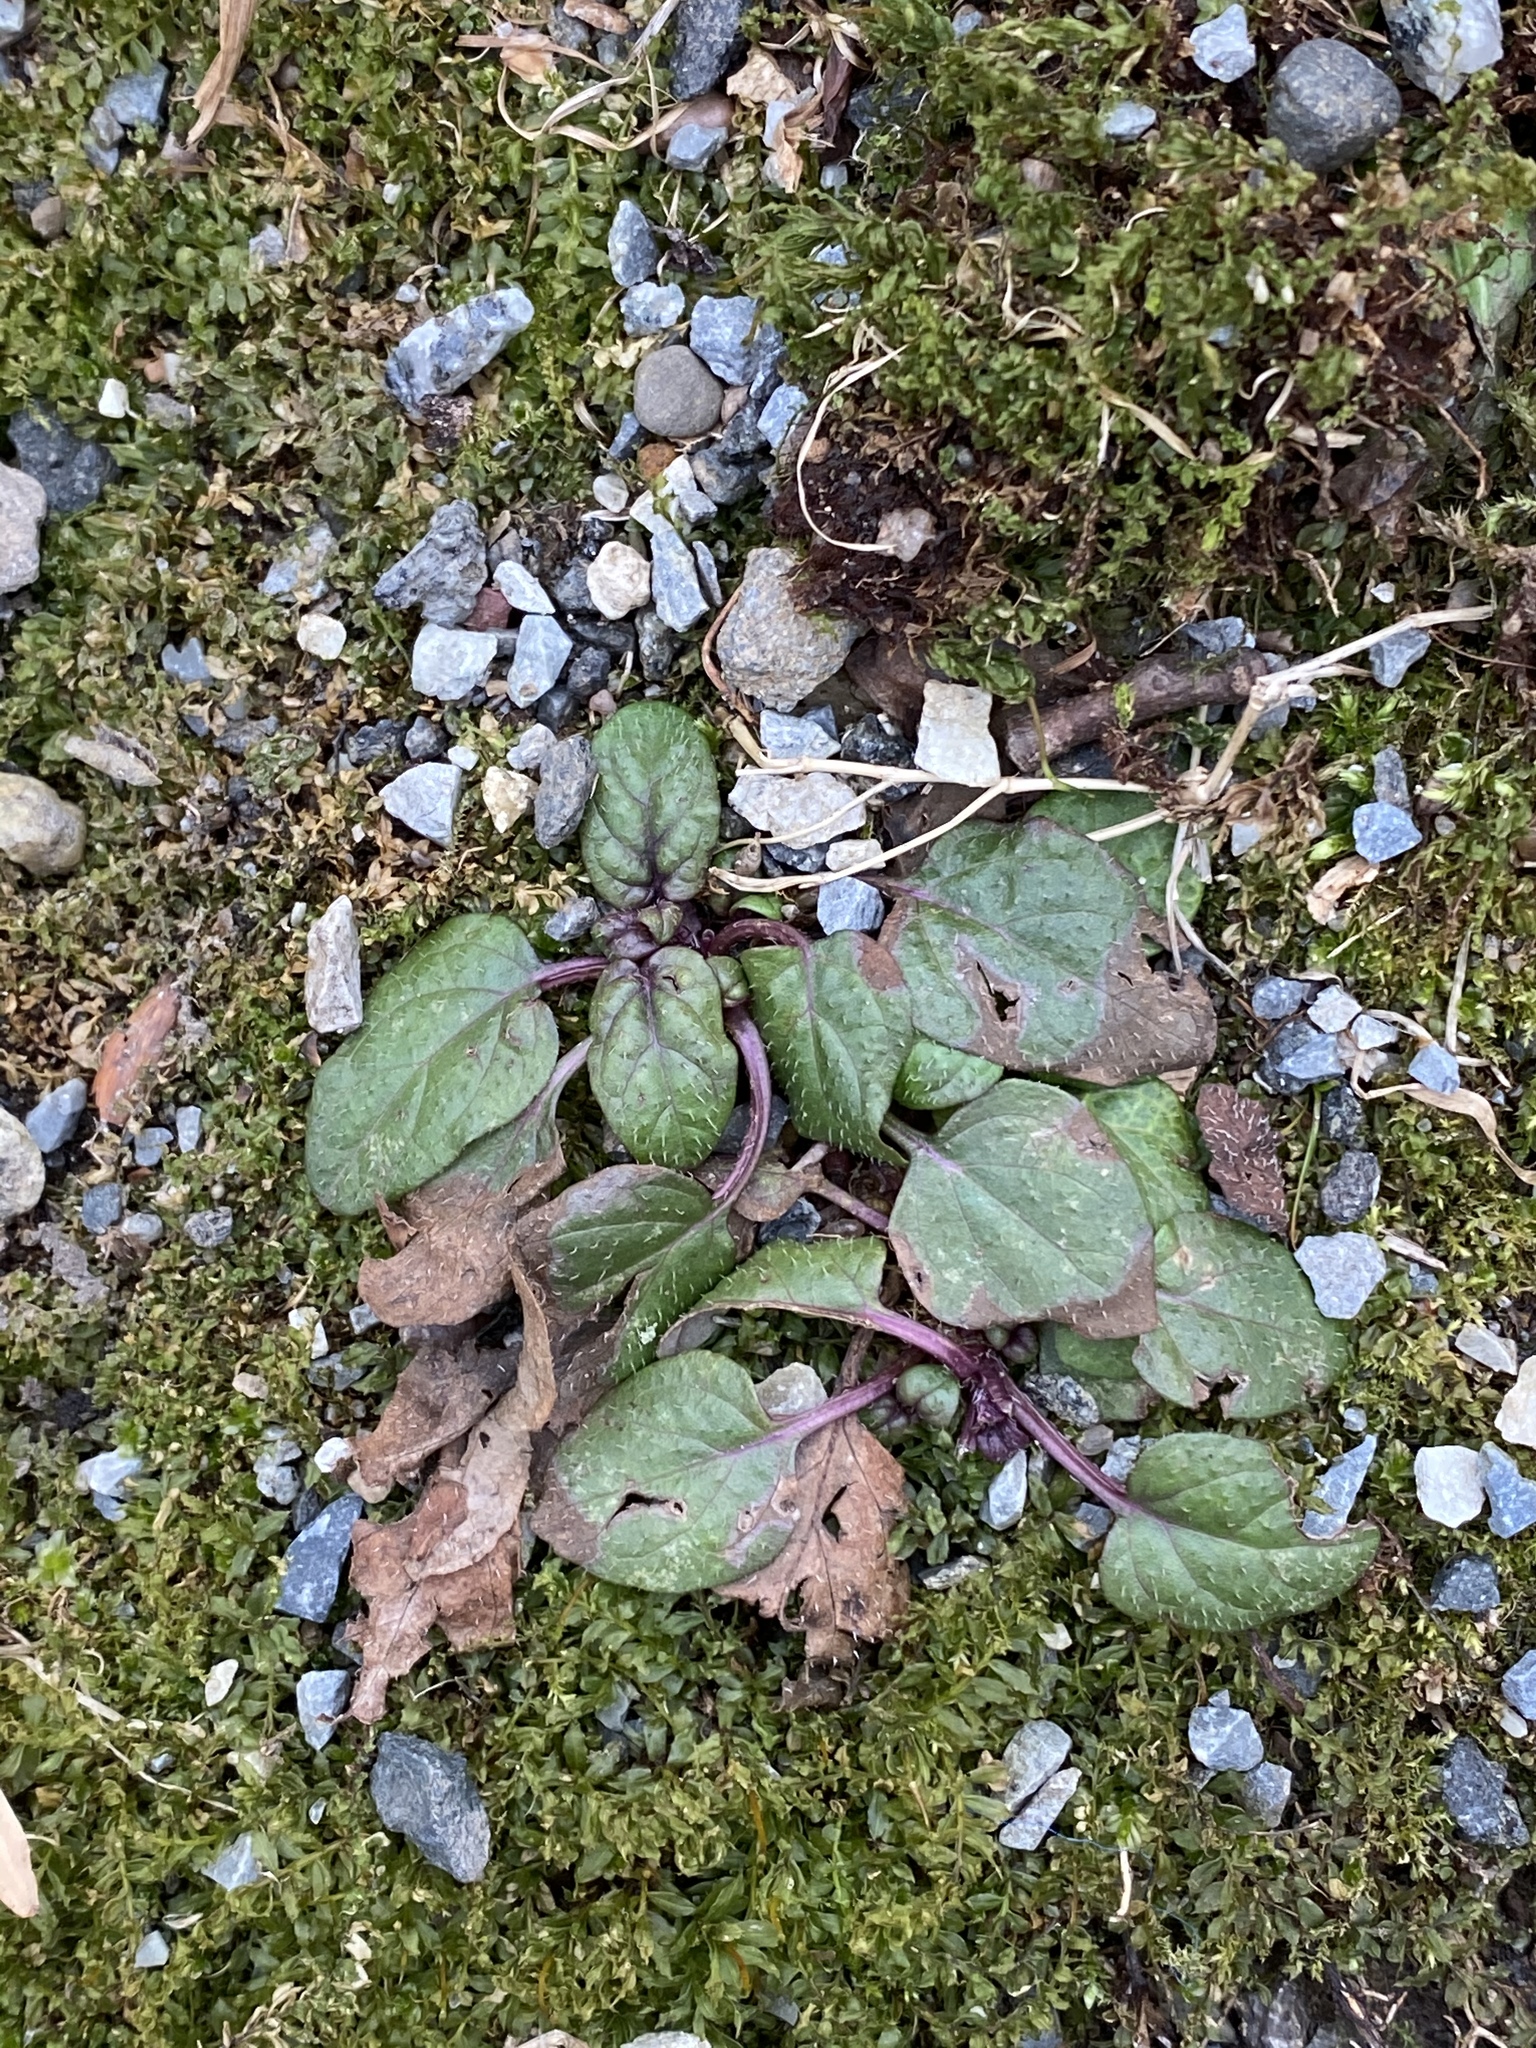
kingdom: Plantae
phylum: Tracheophyta
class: Magnoliopsida
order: Lamiales
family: Lamiaceae
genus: Prunella
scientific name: Prunella vulgaris
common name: Heal-all
